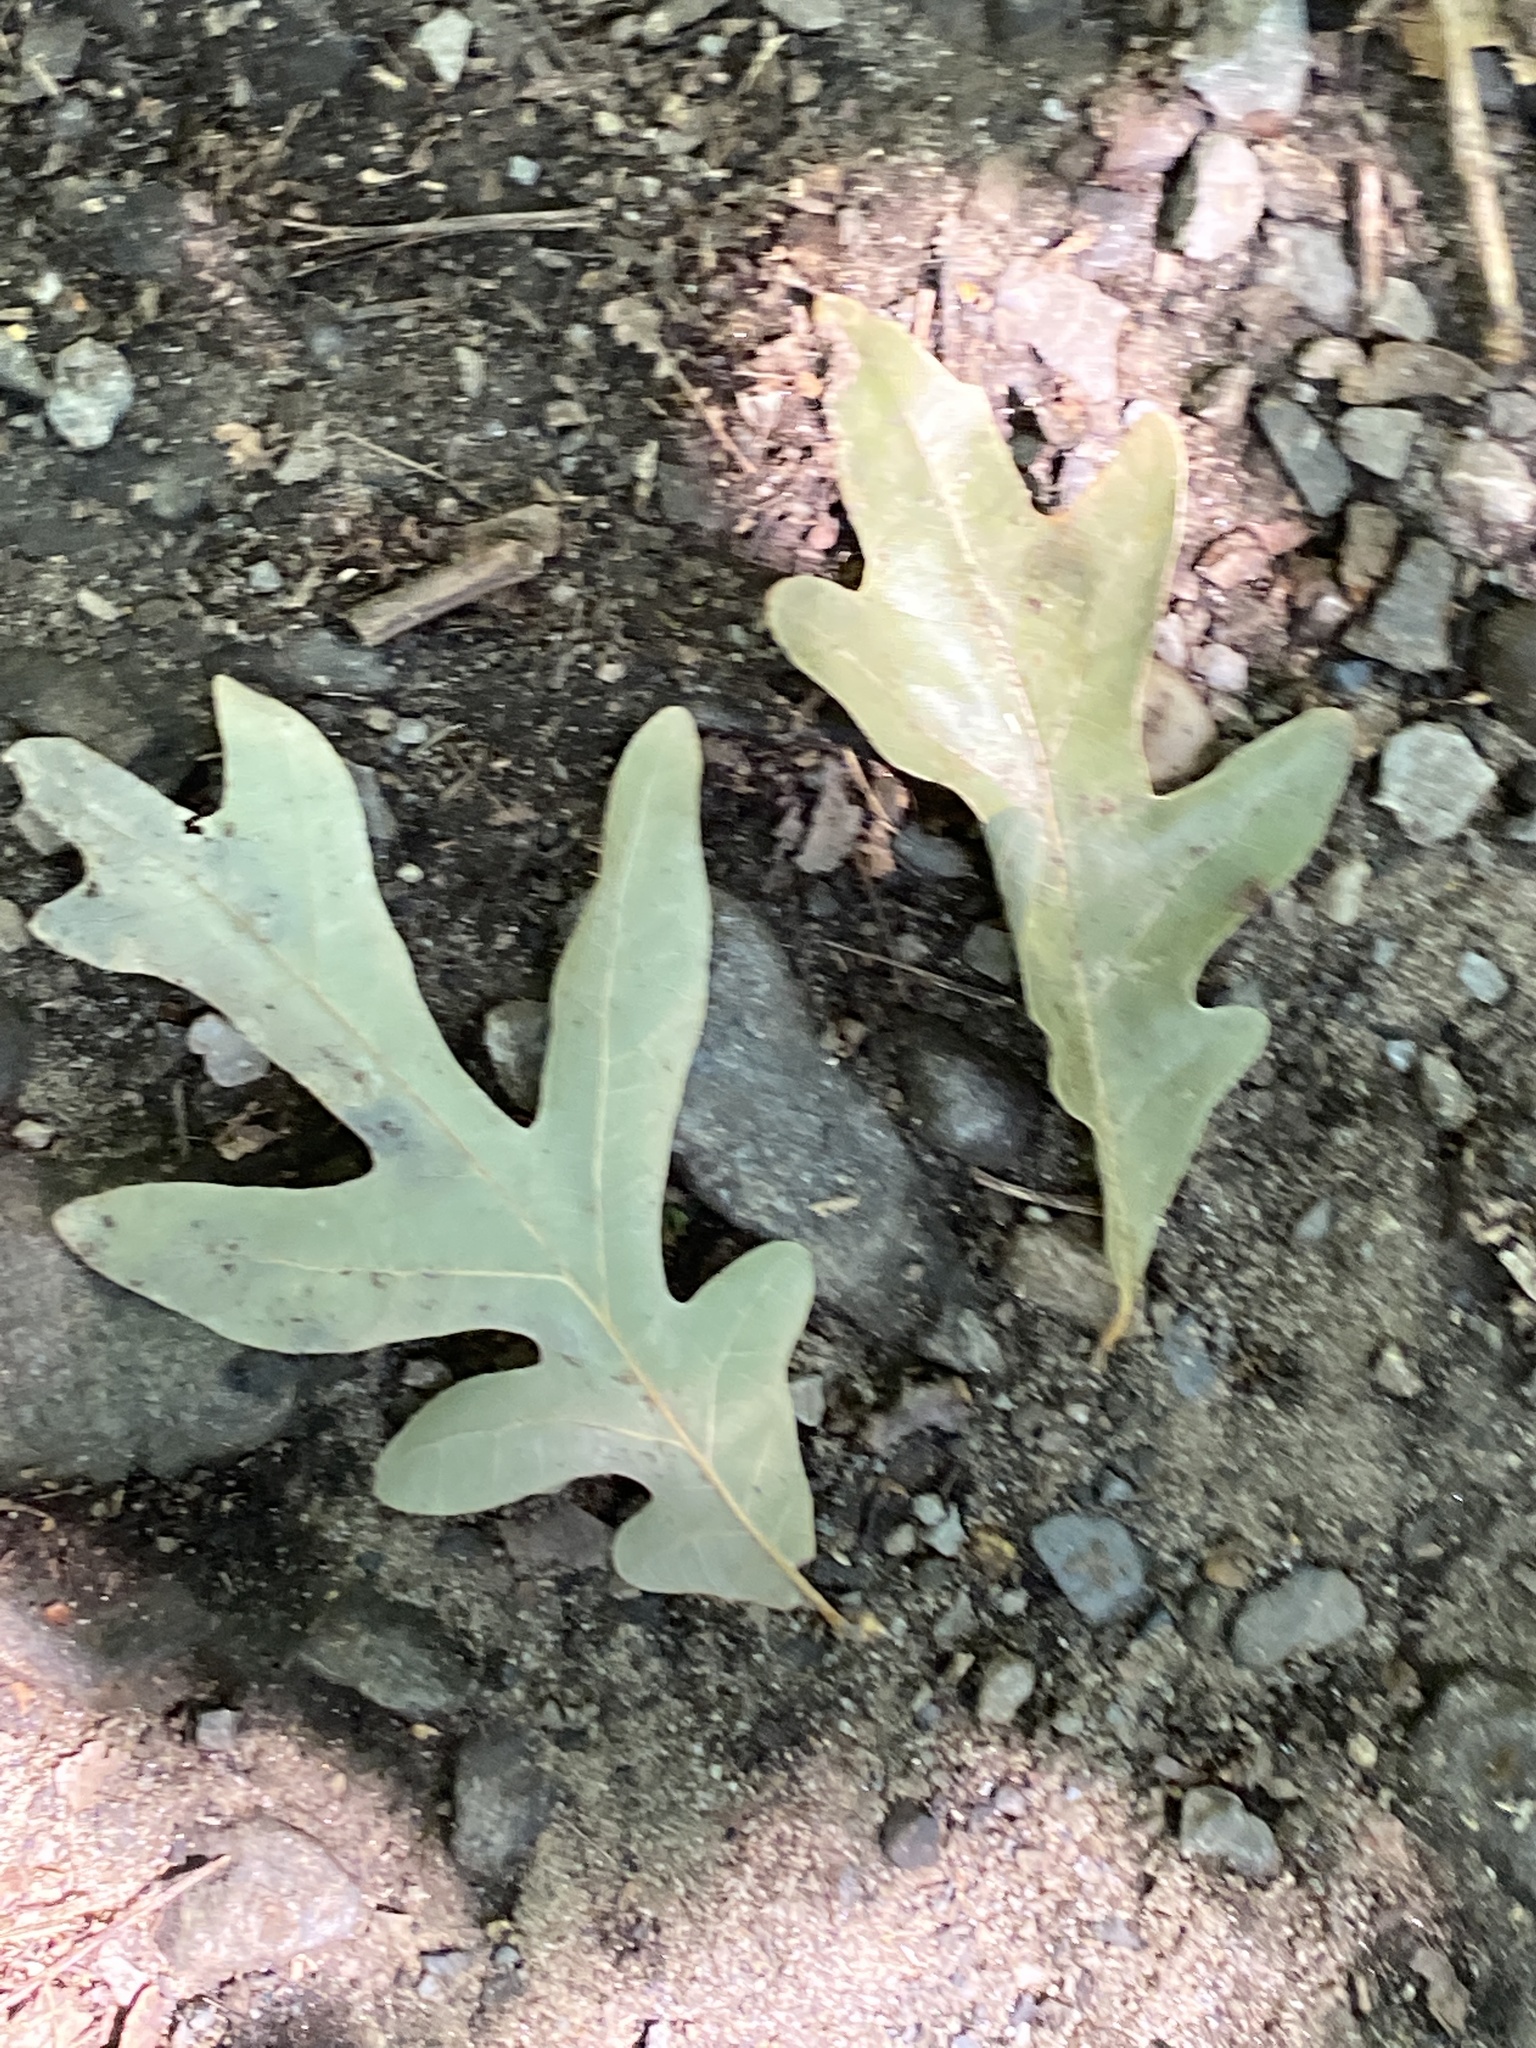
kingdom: Plantae
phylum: Tracheophyta
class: Magnoliopsida
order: Fagales
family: Fagaceae
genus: Quercus
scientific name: Quercus alba
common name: White oak
